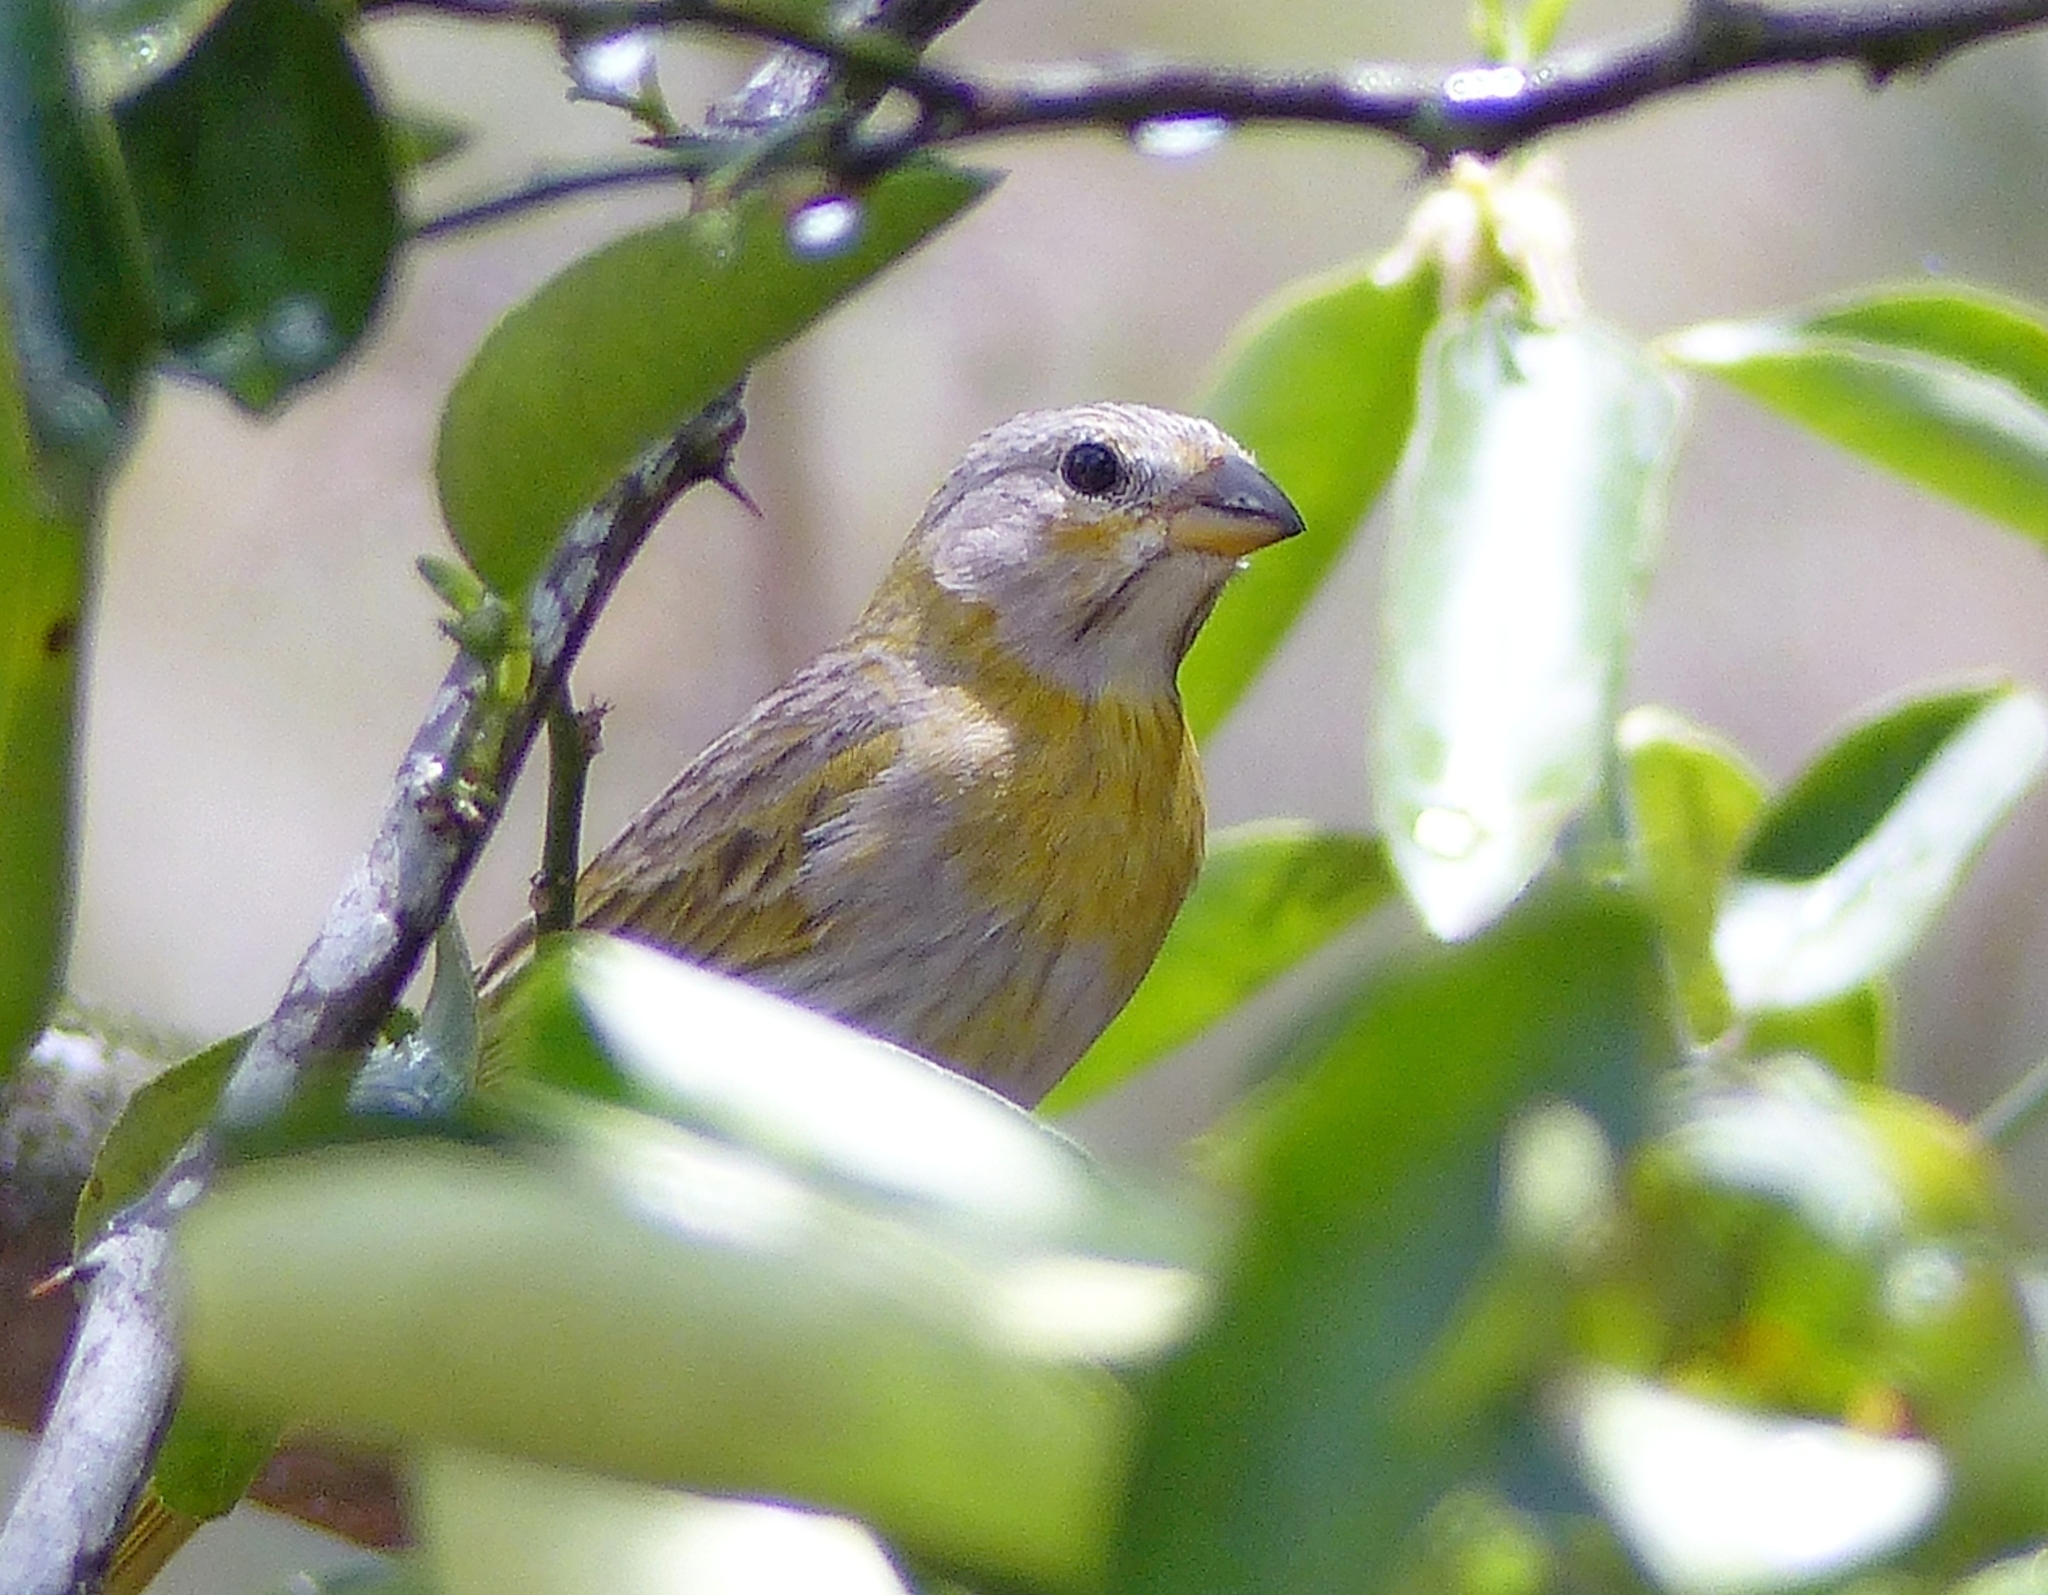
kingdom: Animalia
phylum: Chordata
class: Aves
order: Passeriformes
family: Thraupidae
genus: Sicalis
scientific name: Sicalis flaveola
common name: Saffron finch
